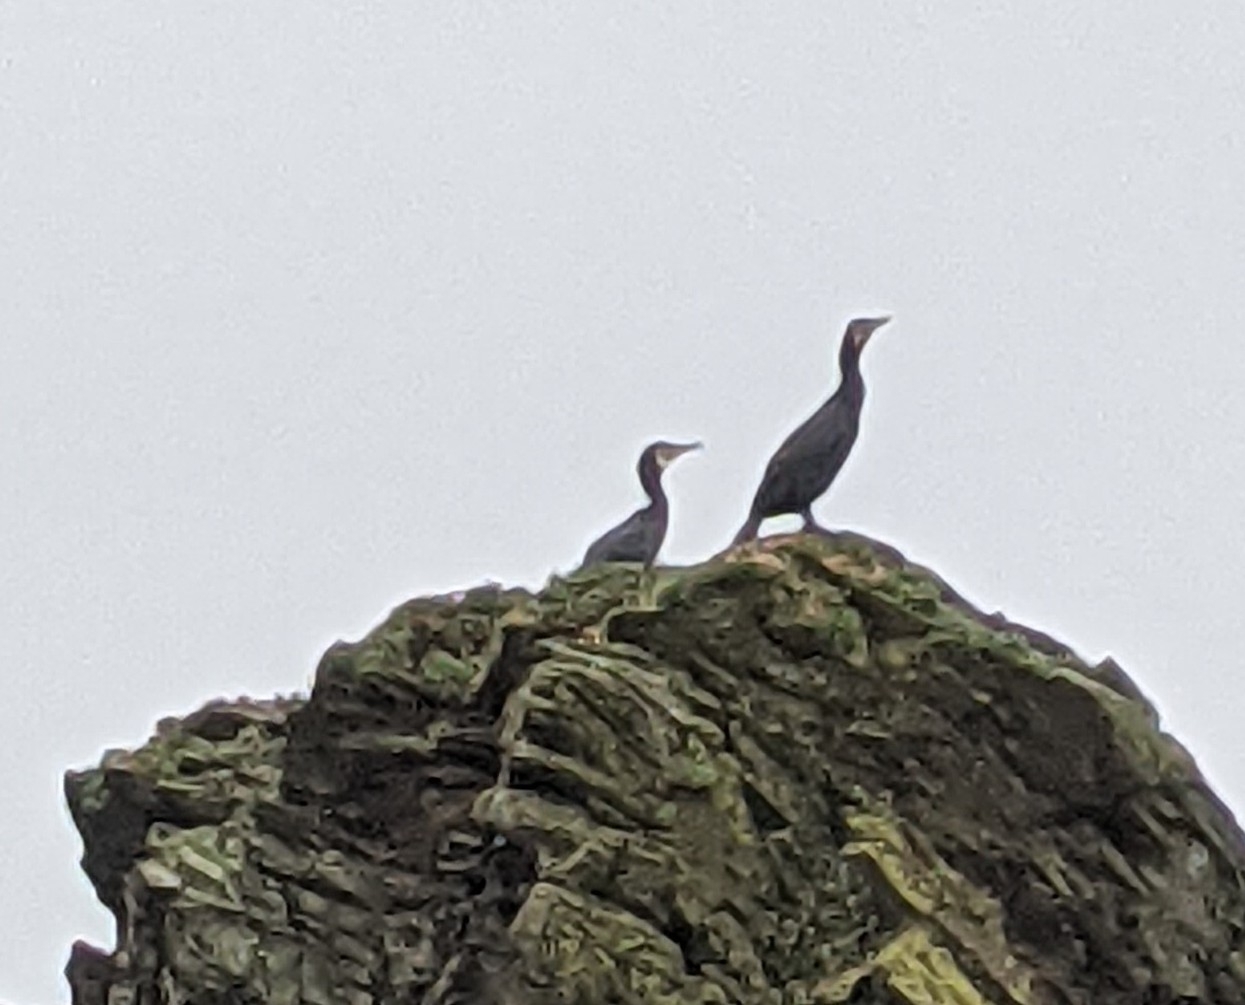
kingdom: Animalia
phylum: Chordata
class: Aves
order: Suliformes
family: Phalacrocoracidae
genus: Phalacrocorax
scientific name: Phalacrocorax carbo
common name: Great cormorant
